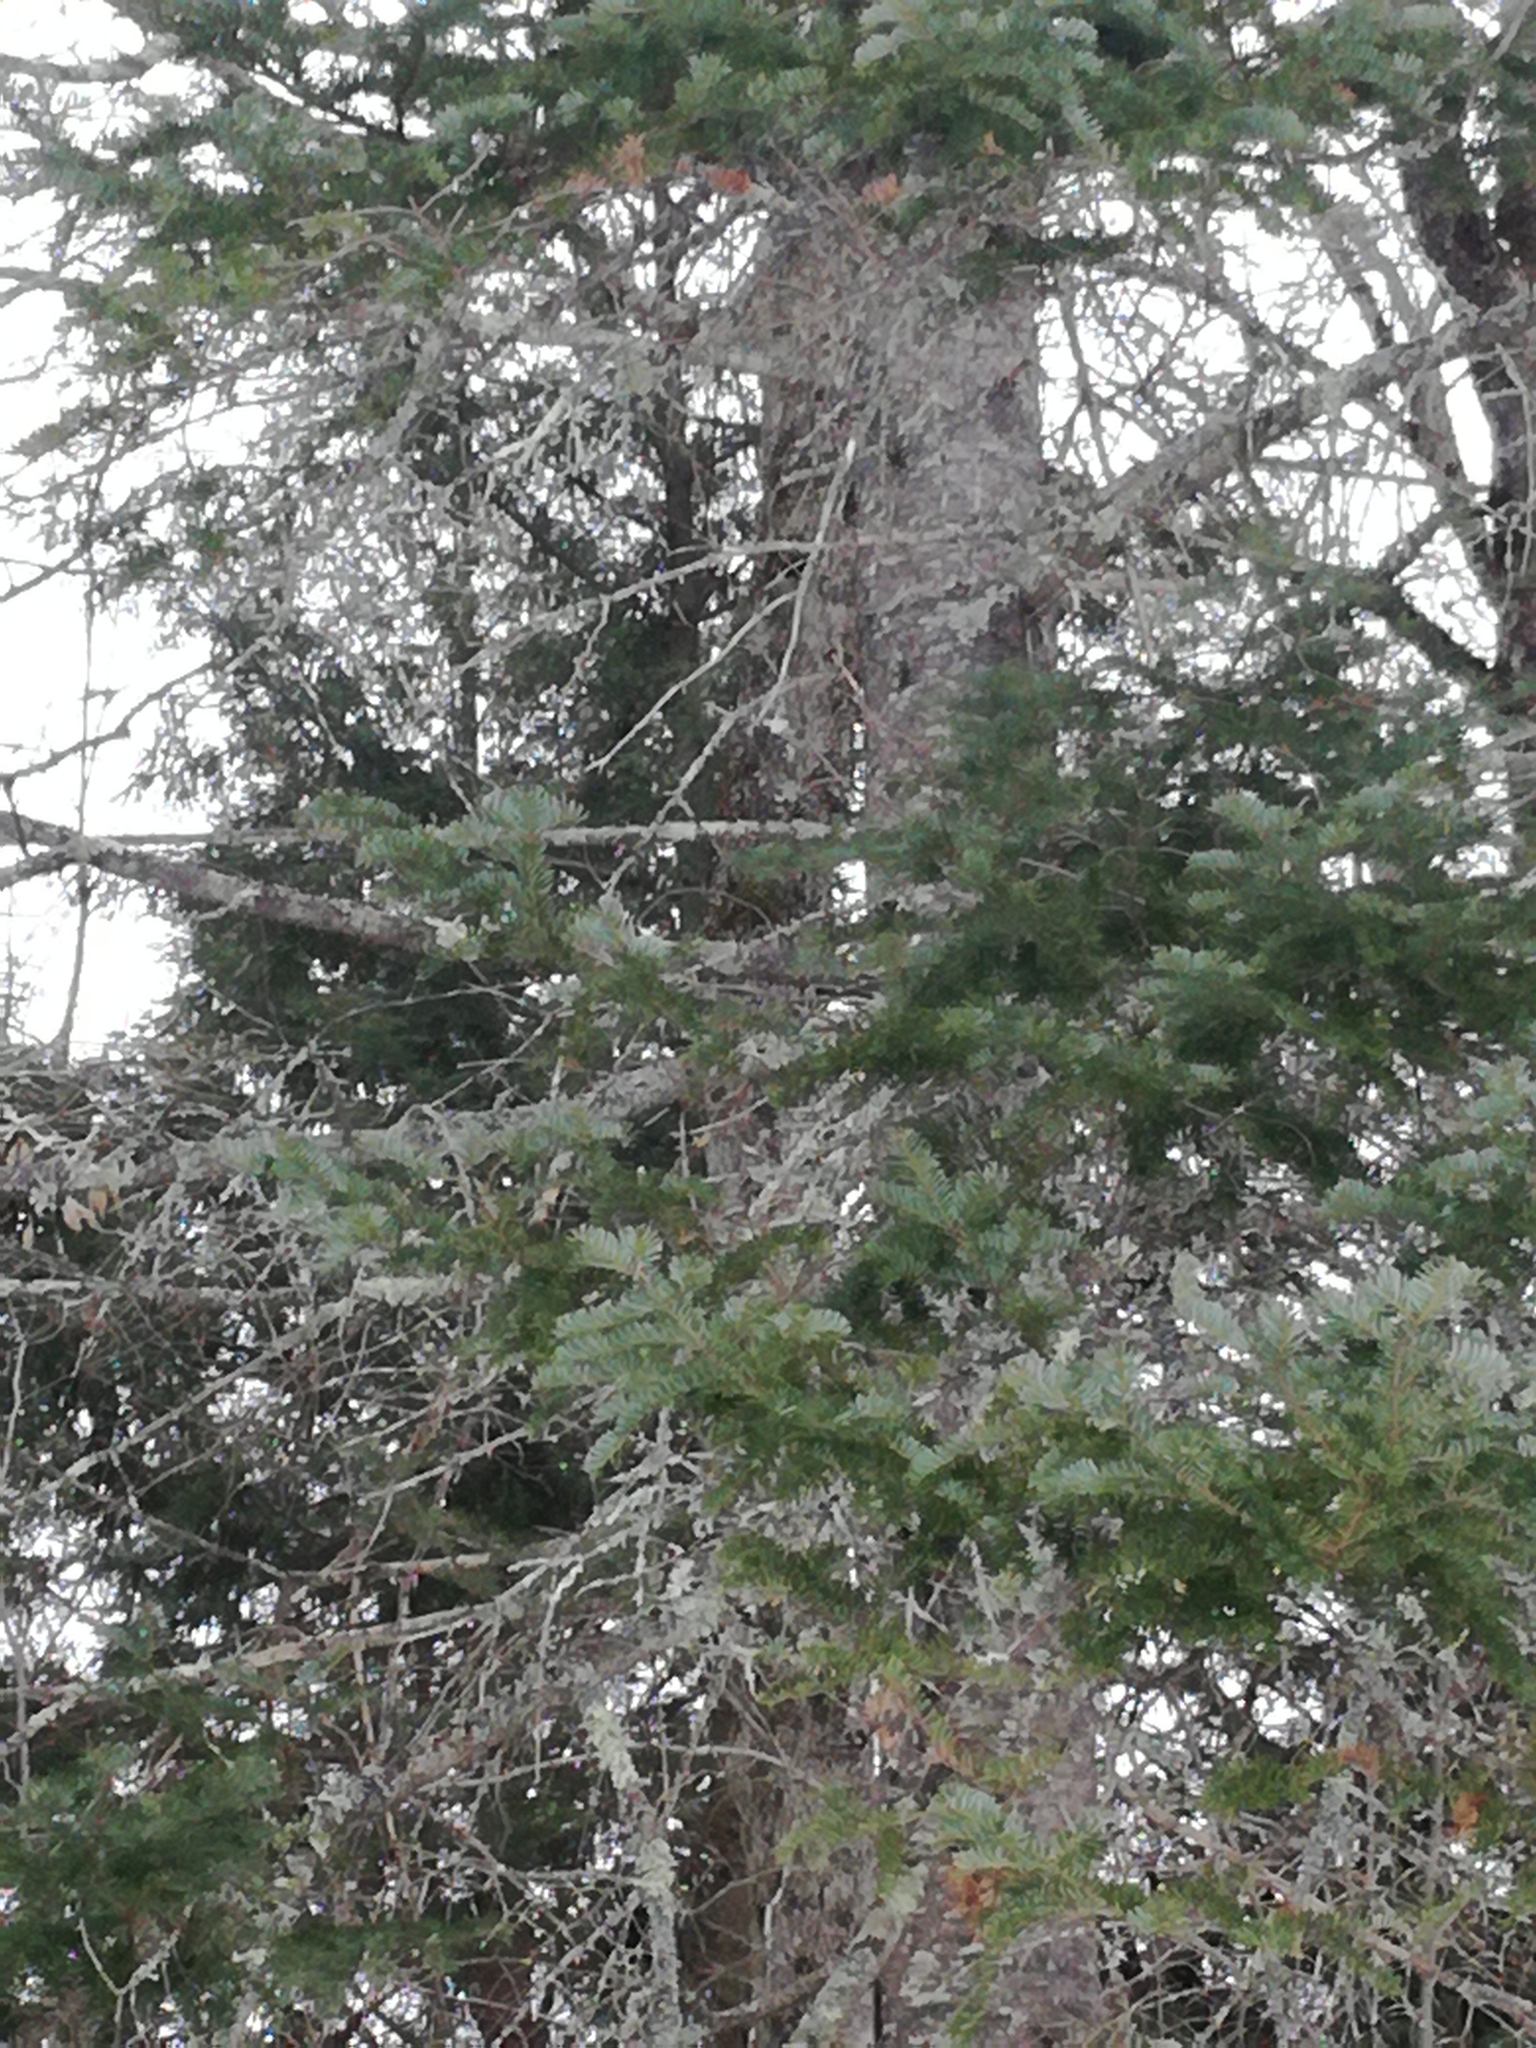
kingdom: Plantae
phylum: Tracheophyta
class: Pinopsida
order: Pinales
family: Pinaceae
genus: Abies
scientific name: Abies balsamea
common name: Balsam fir
